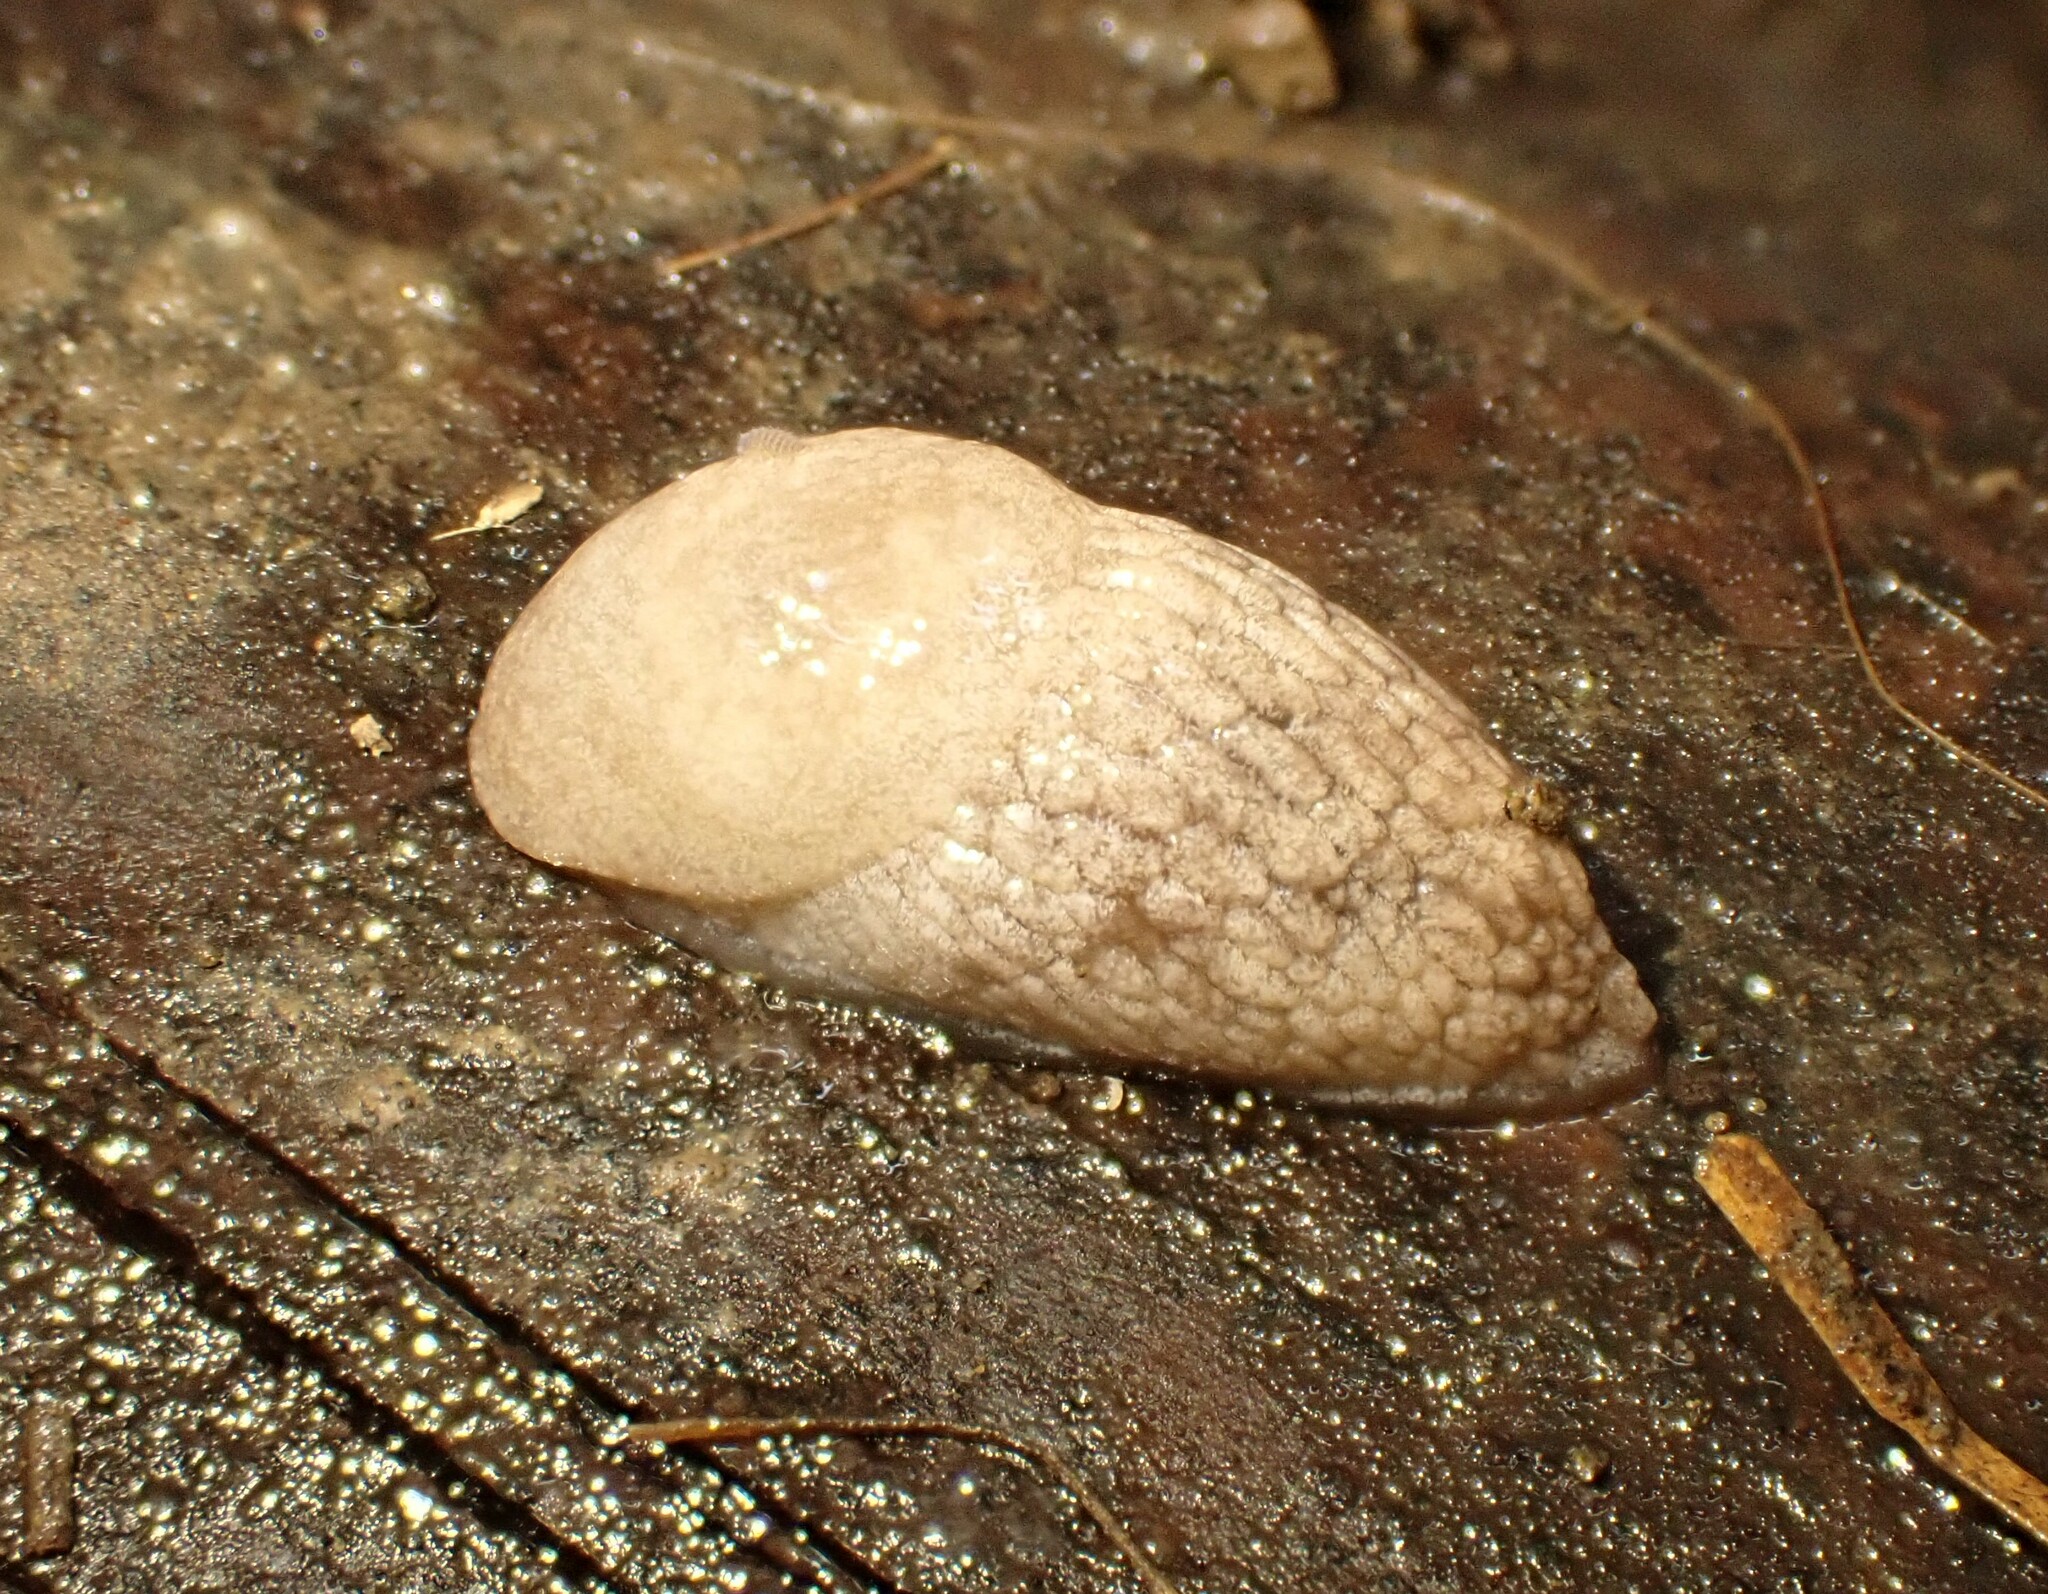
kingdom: Animalia
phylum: Mollusca
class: Gastropoda
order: Stylommatophora
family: Agriolimacidae
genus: Deroceras
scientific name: Deroceras reticulatum
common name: Gray field slug
